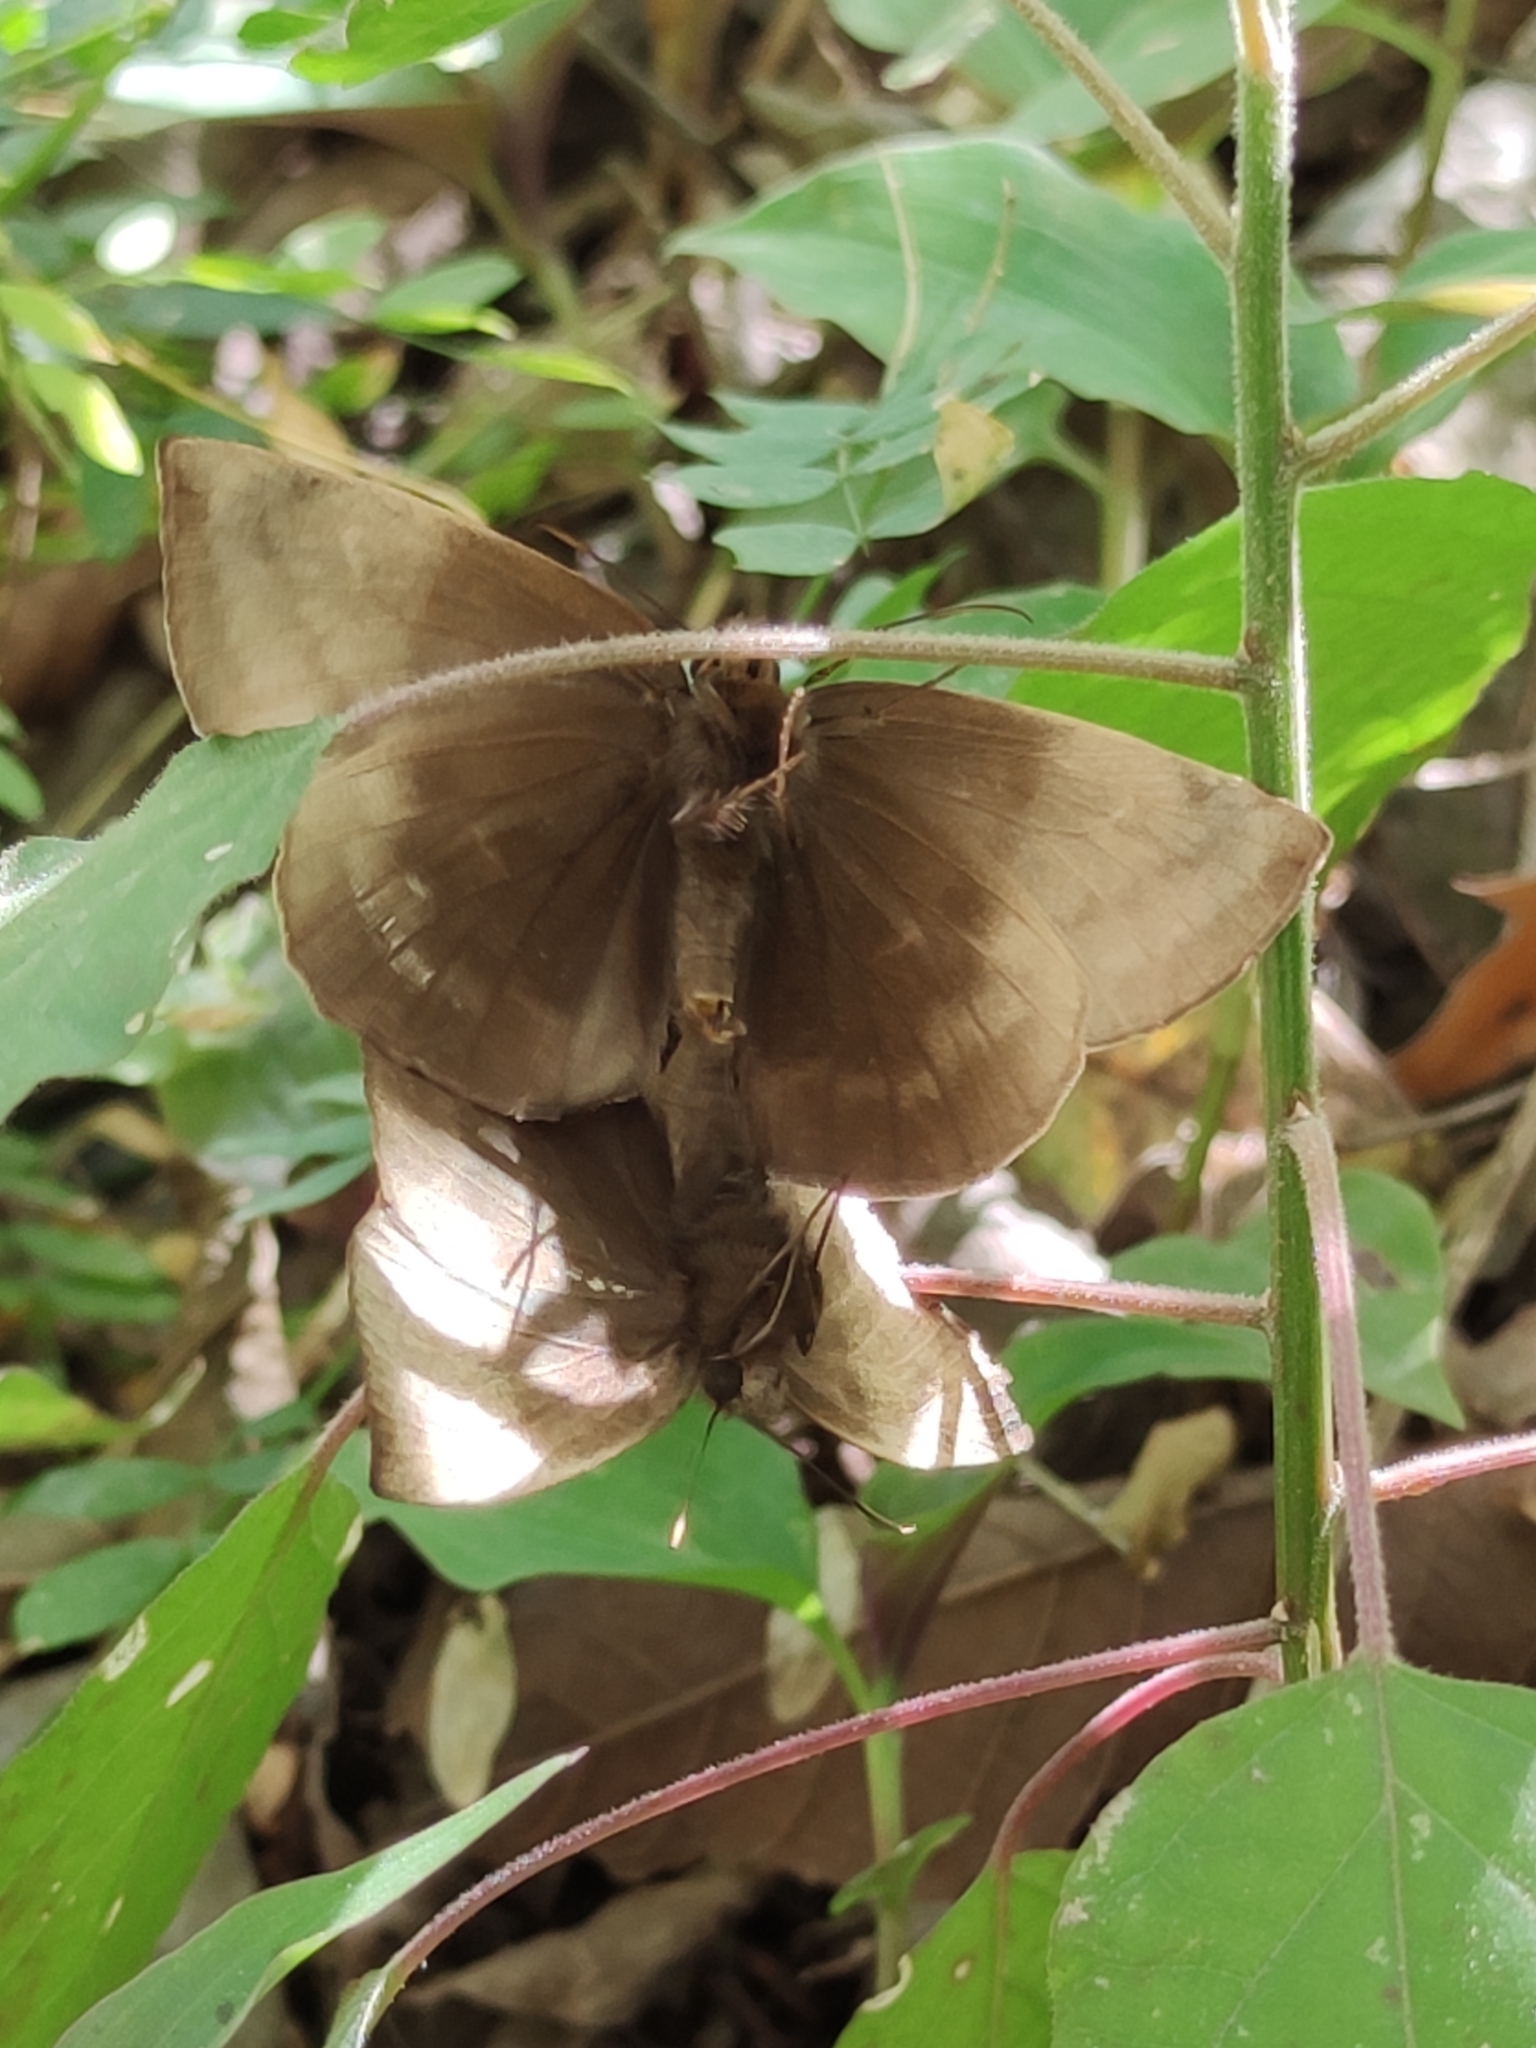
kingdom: Animalia
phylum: Arthropoda
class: Insecta
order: Lepidoptera
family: Hesperiidae
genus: Achlyodes
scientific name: Achlyodes pallida
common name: Pale sicklewing
